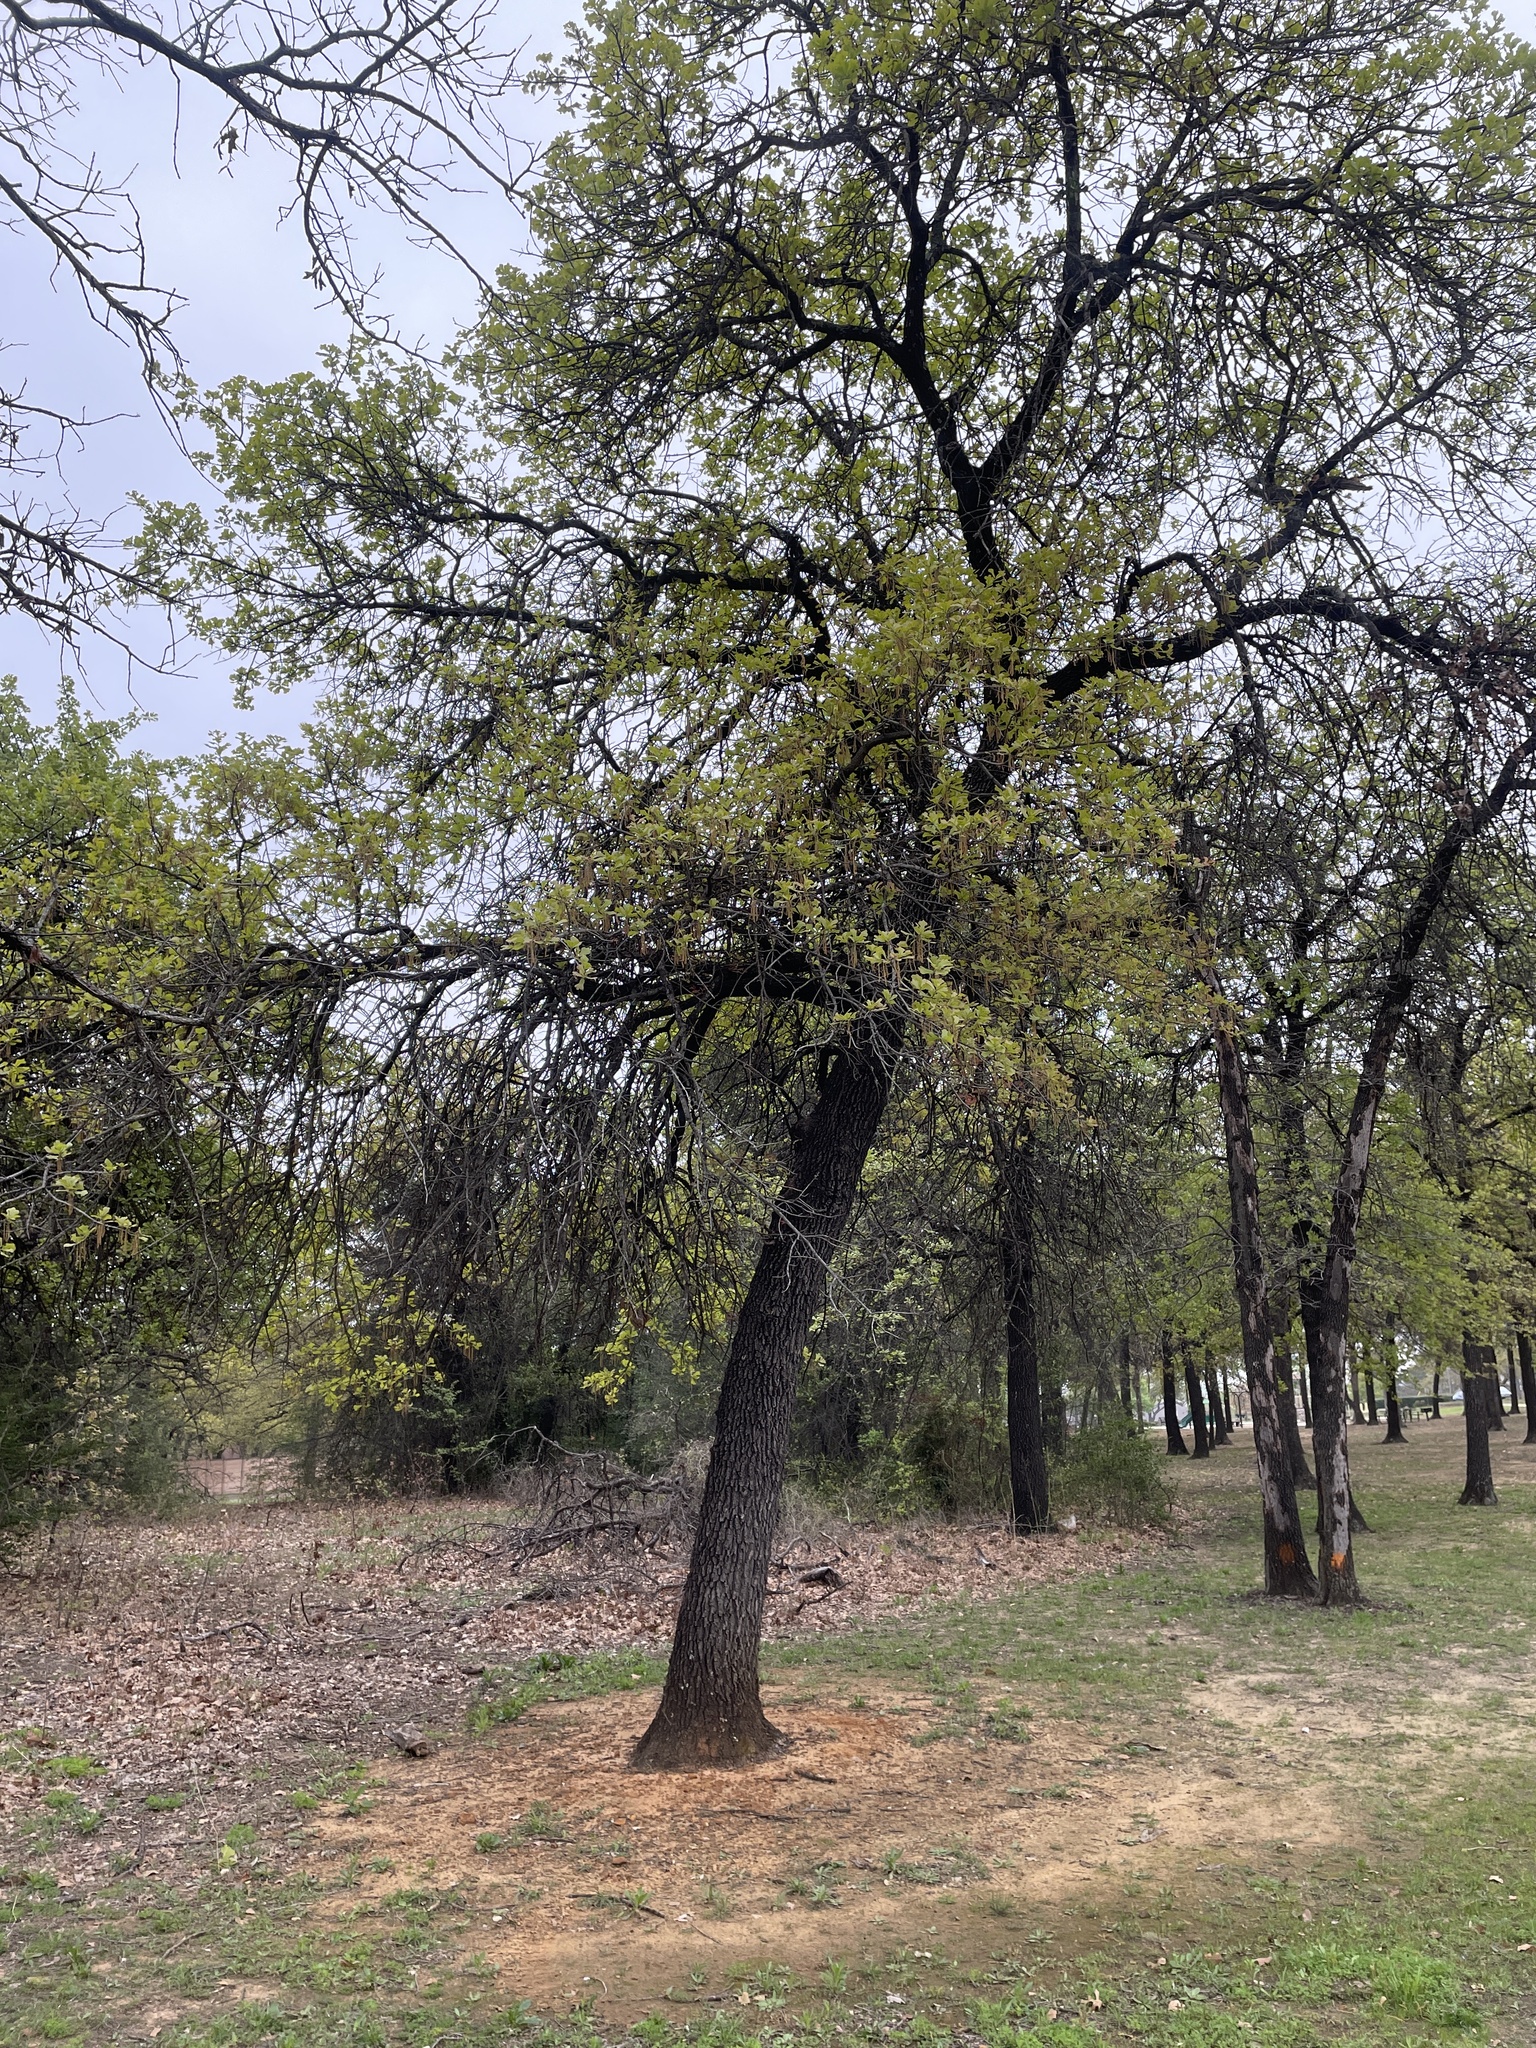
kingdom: Plantae
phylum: Tracheophyta
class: Magnoliopsida
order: Fagales
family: Fagaceae
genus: Quercus
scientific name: Quercus marilandica
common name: Blackjack oak
